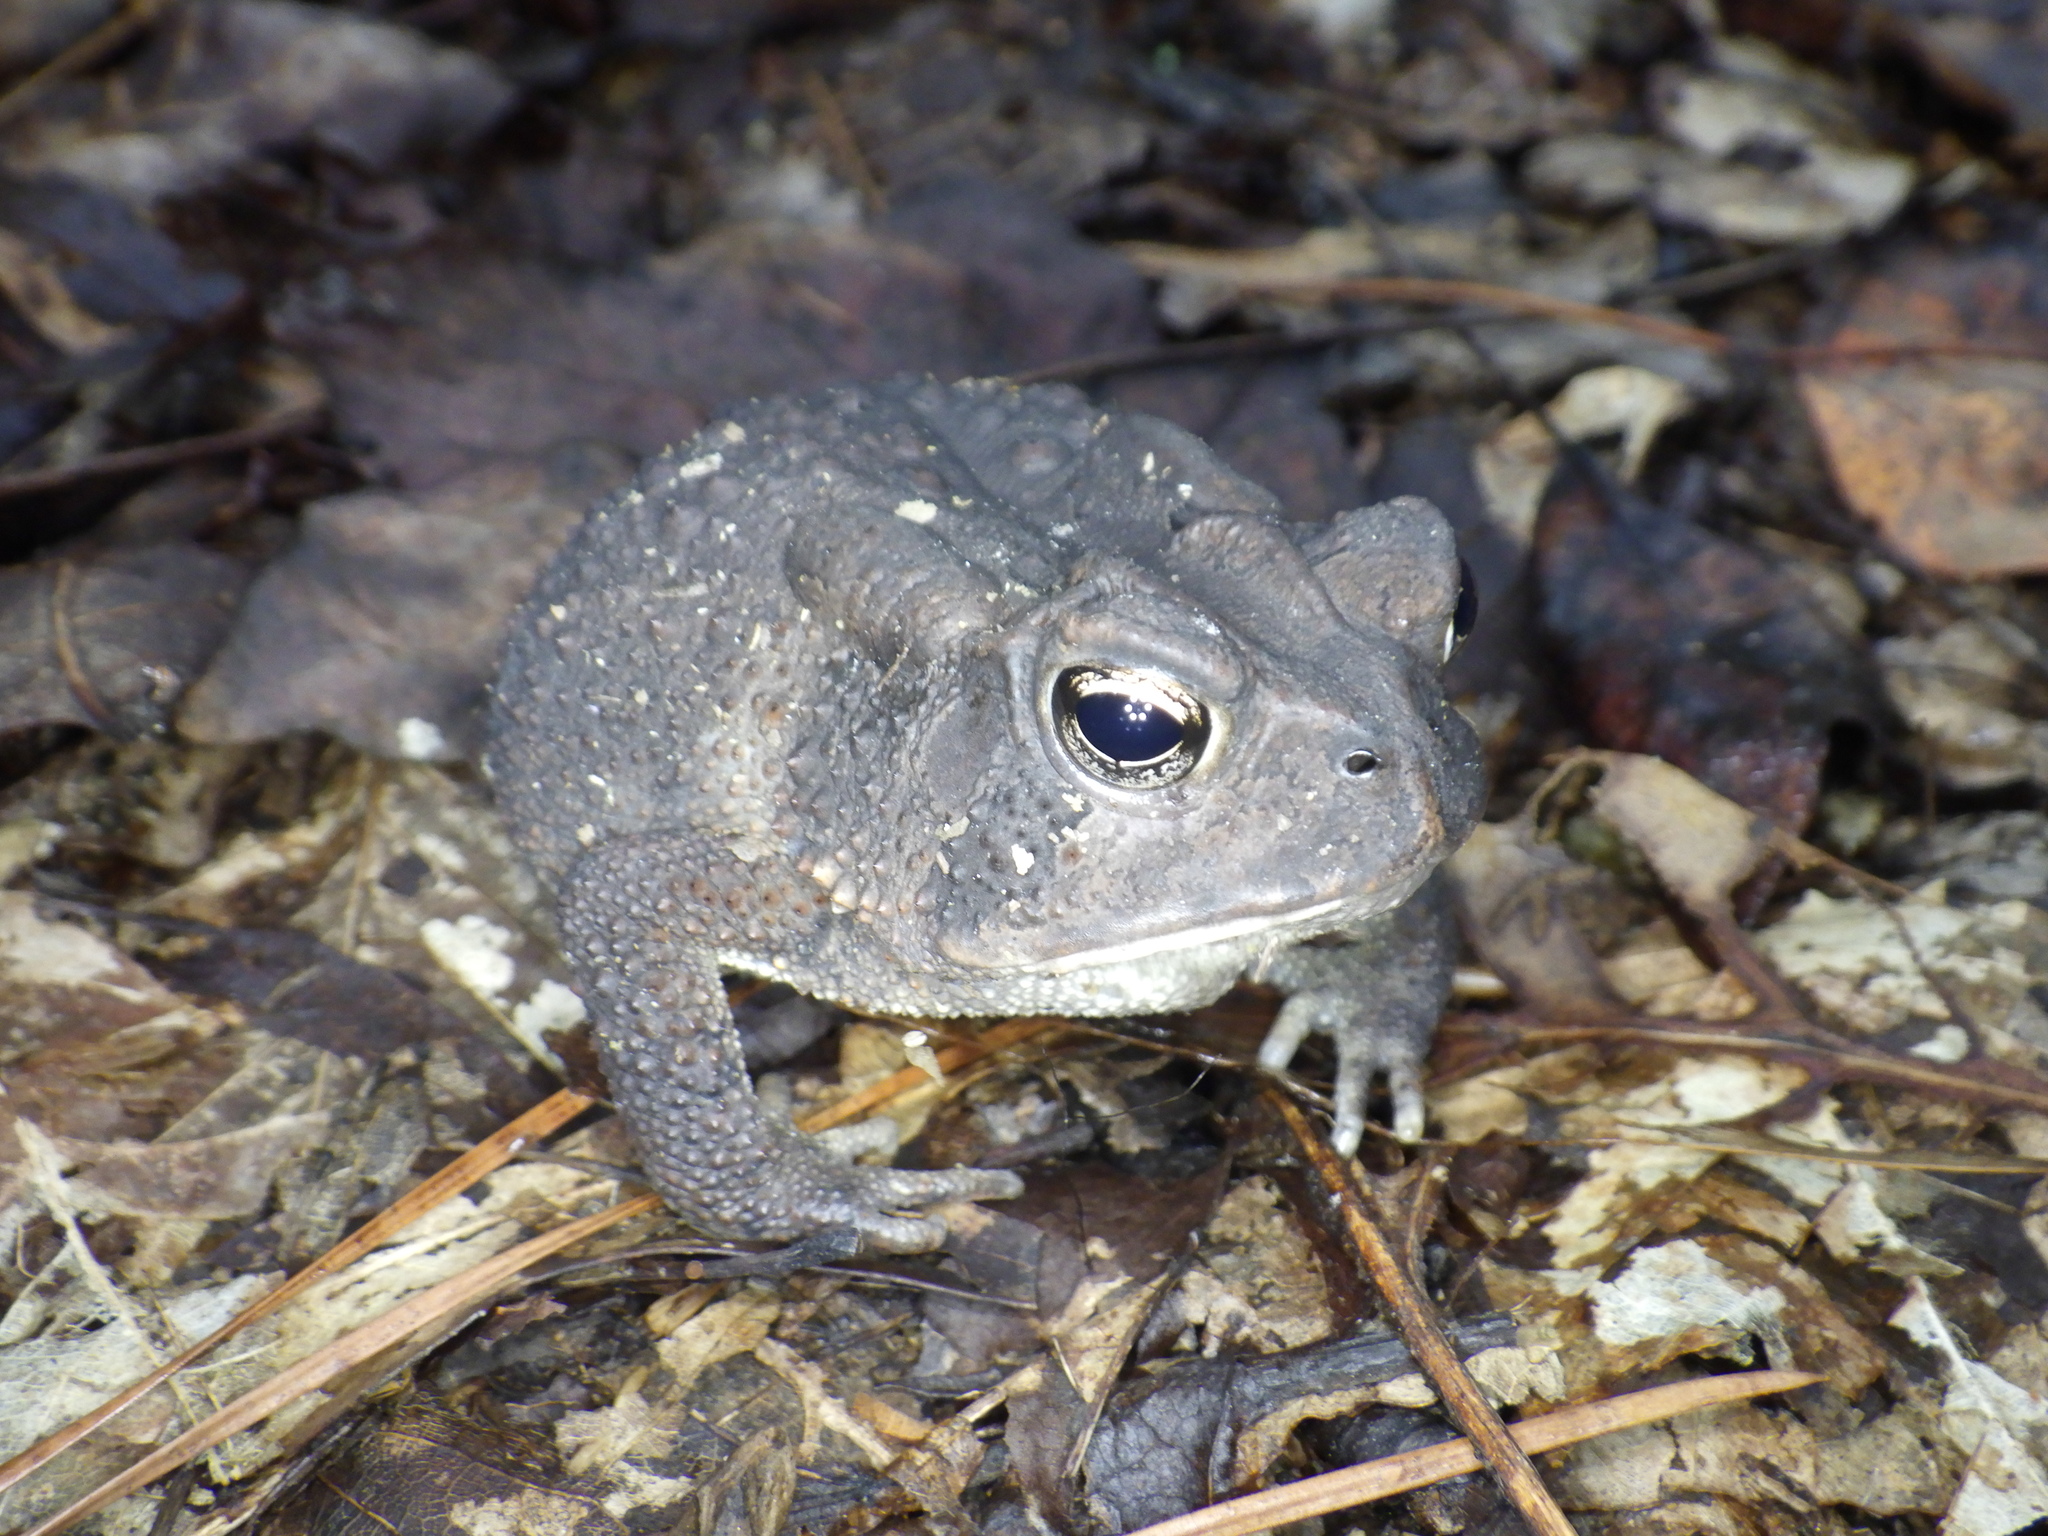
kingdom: Animalia
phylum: Chordata
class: Amphibia
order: Anura
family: Bufonidae
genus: Anaxyrus
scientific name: Anaxyrus terrestris
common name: Southern toad
